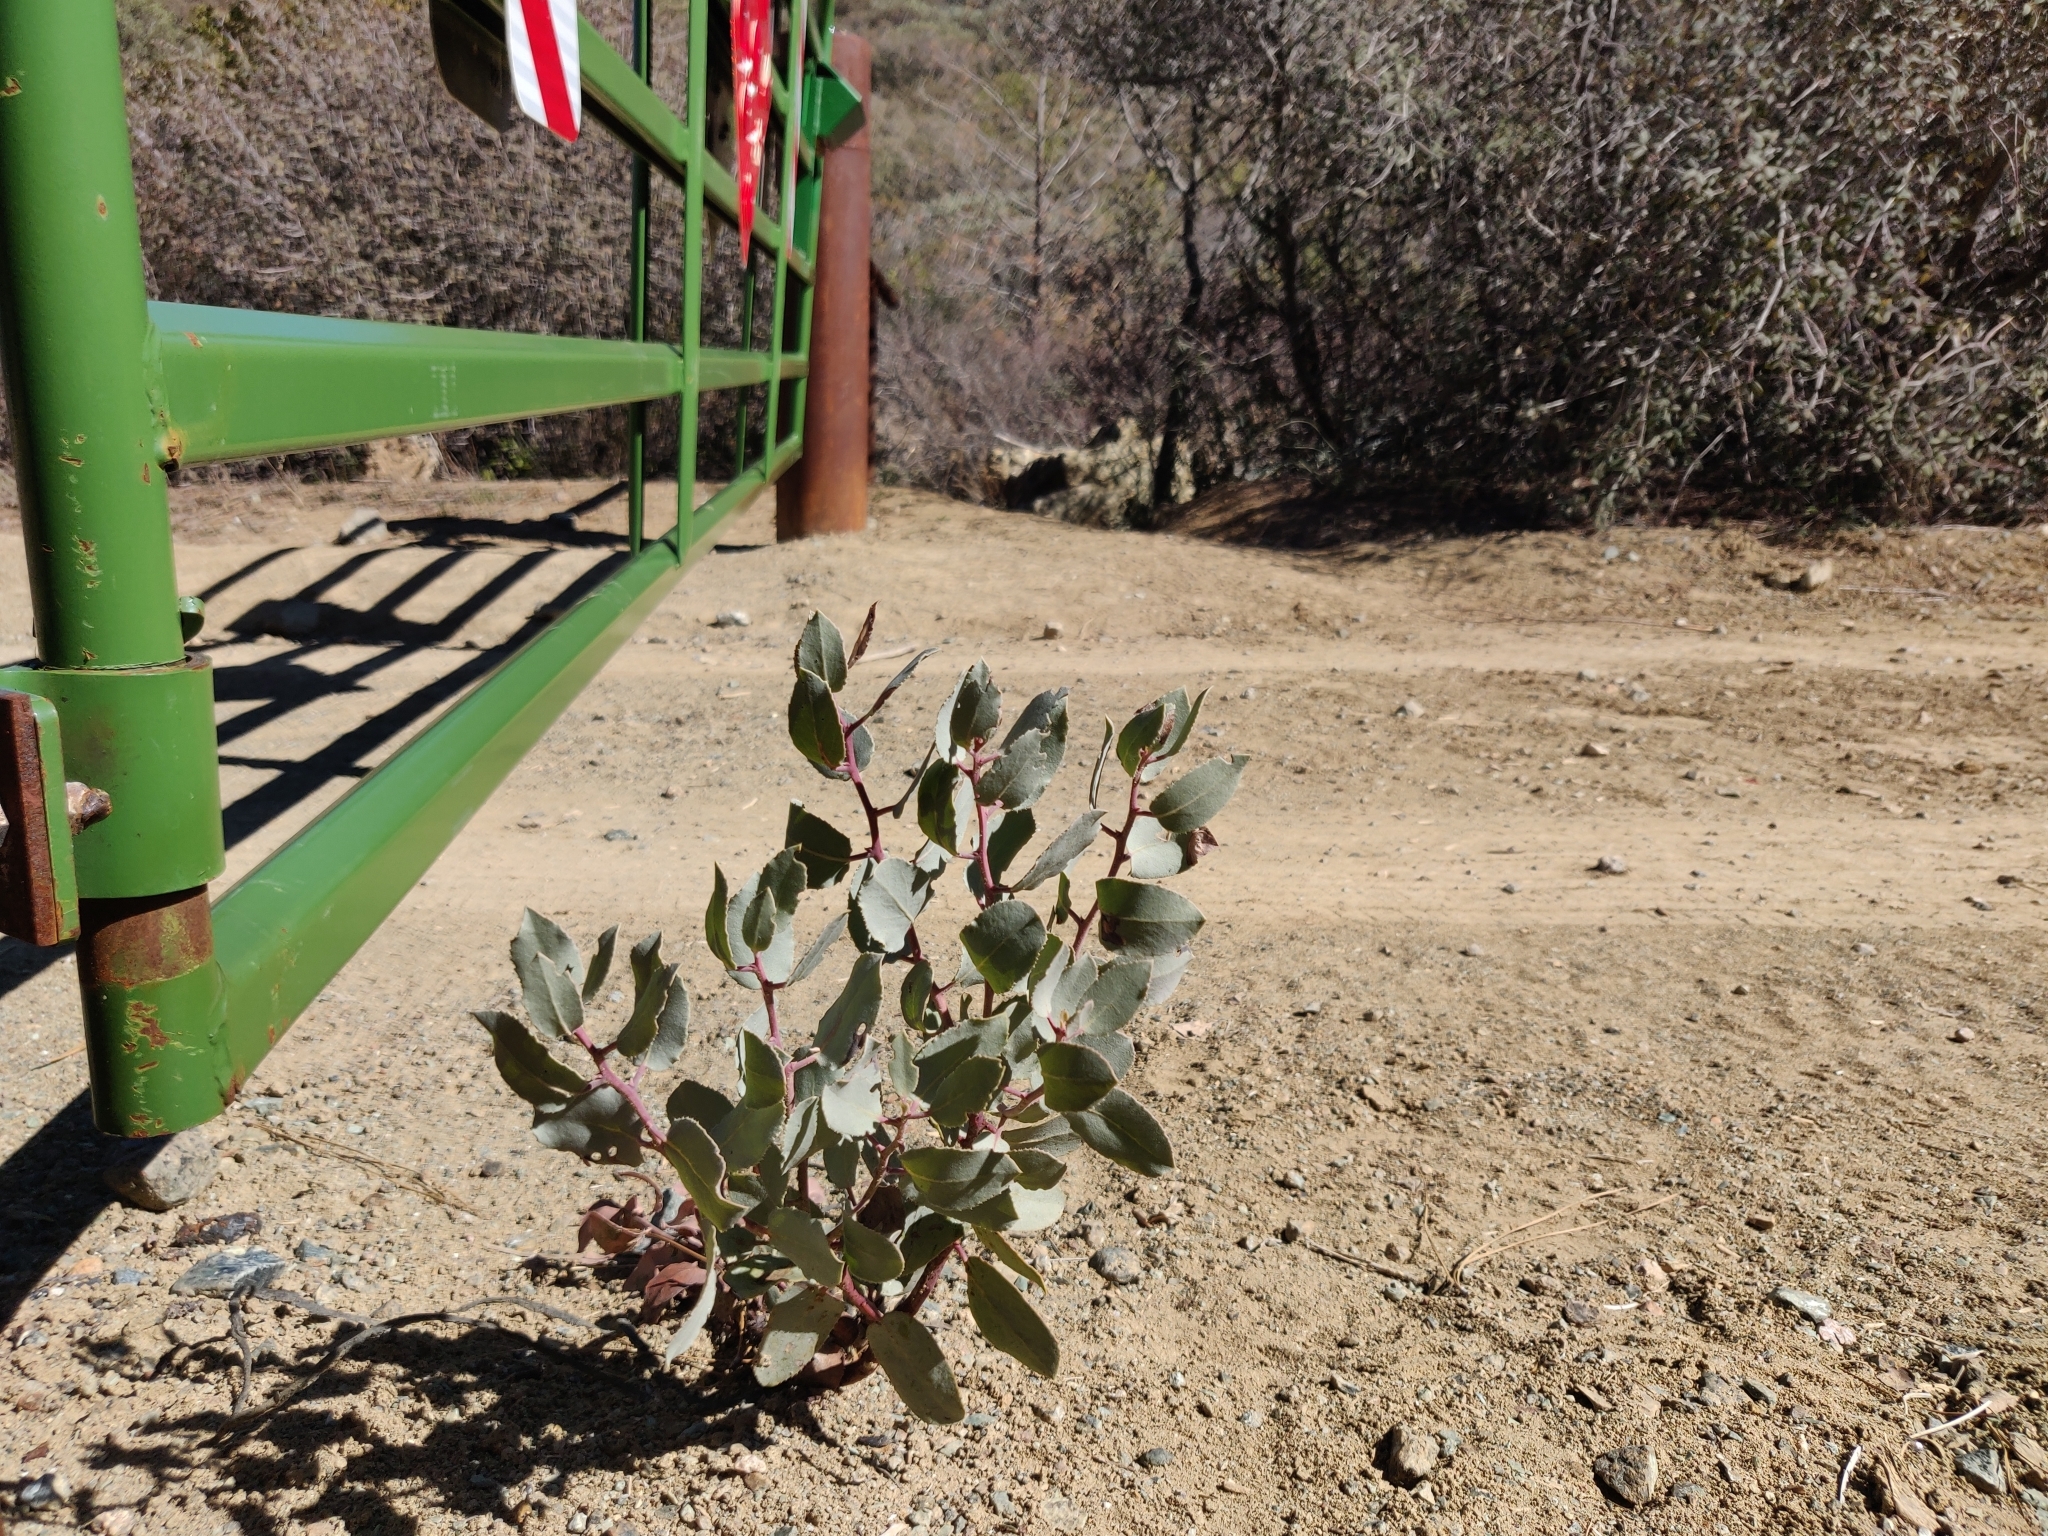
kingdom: Plantae
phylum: Tracheophyta
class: Magnoliopsida
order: Ericales
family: Ericaceae
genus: Arctostaphylos
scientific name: Arctostaphylos glauca
